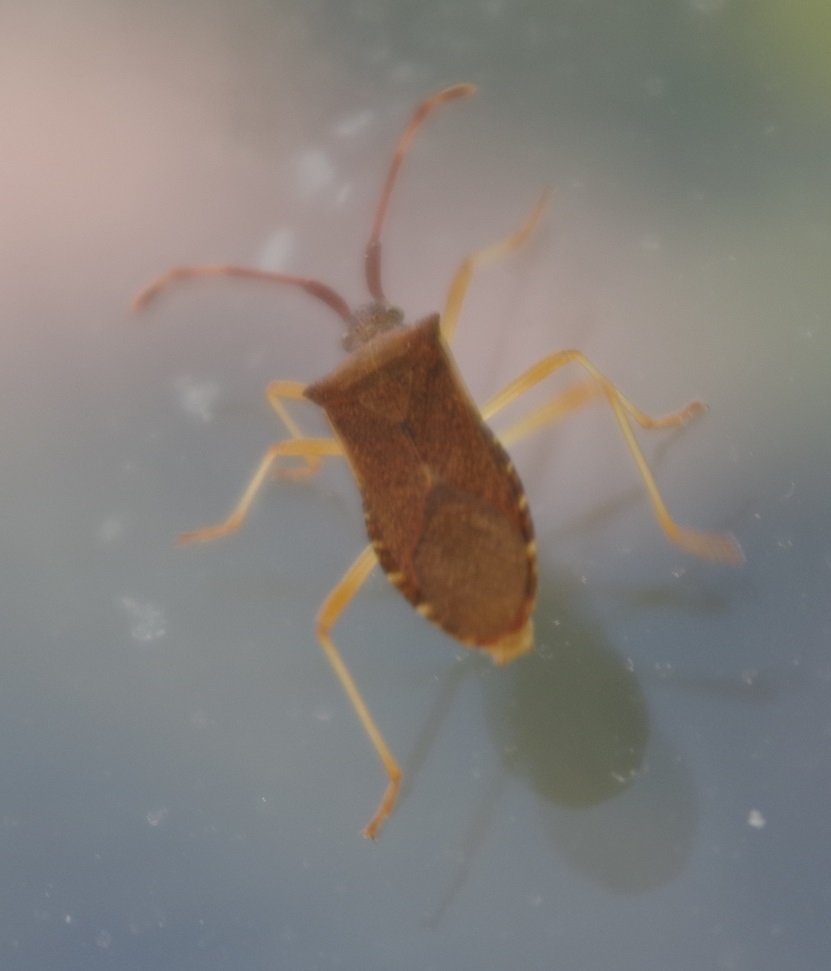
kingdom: Animalia
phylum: Arthropoda
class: Insecta
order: Hemiptera
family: Coreidae
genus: Gonocerus
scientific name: Gonocerus acuteangulatus
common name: Box bug
